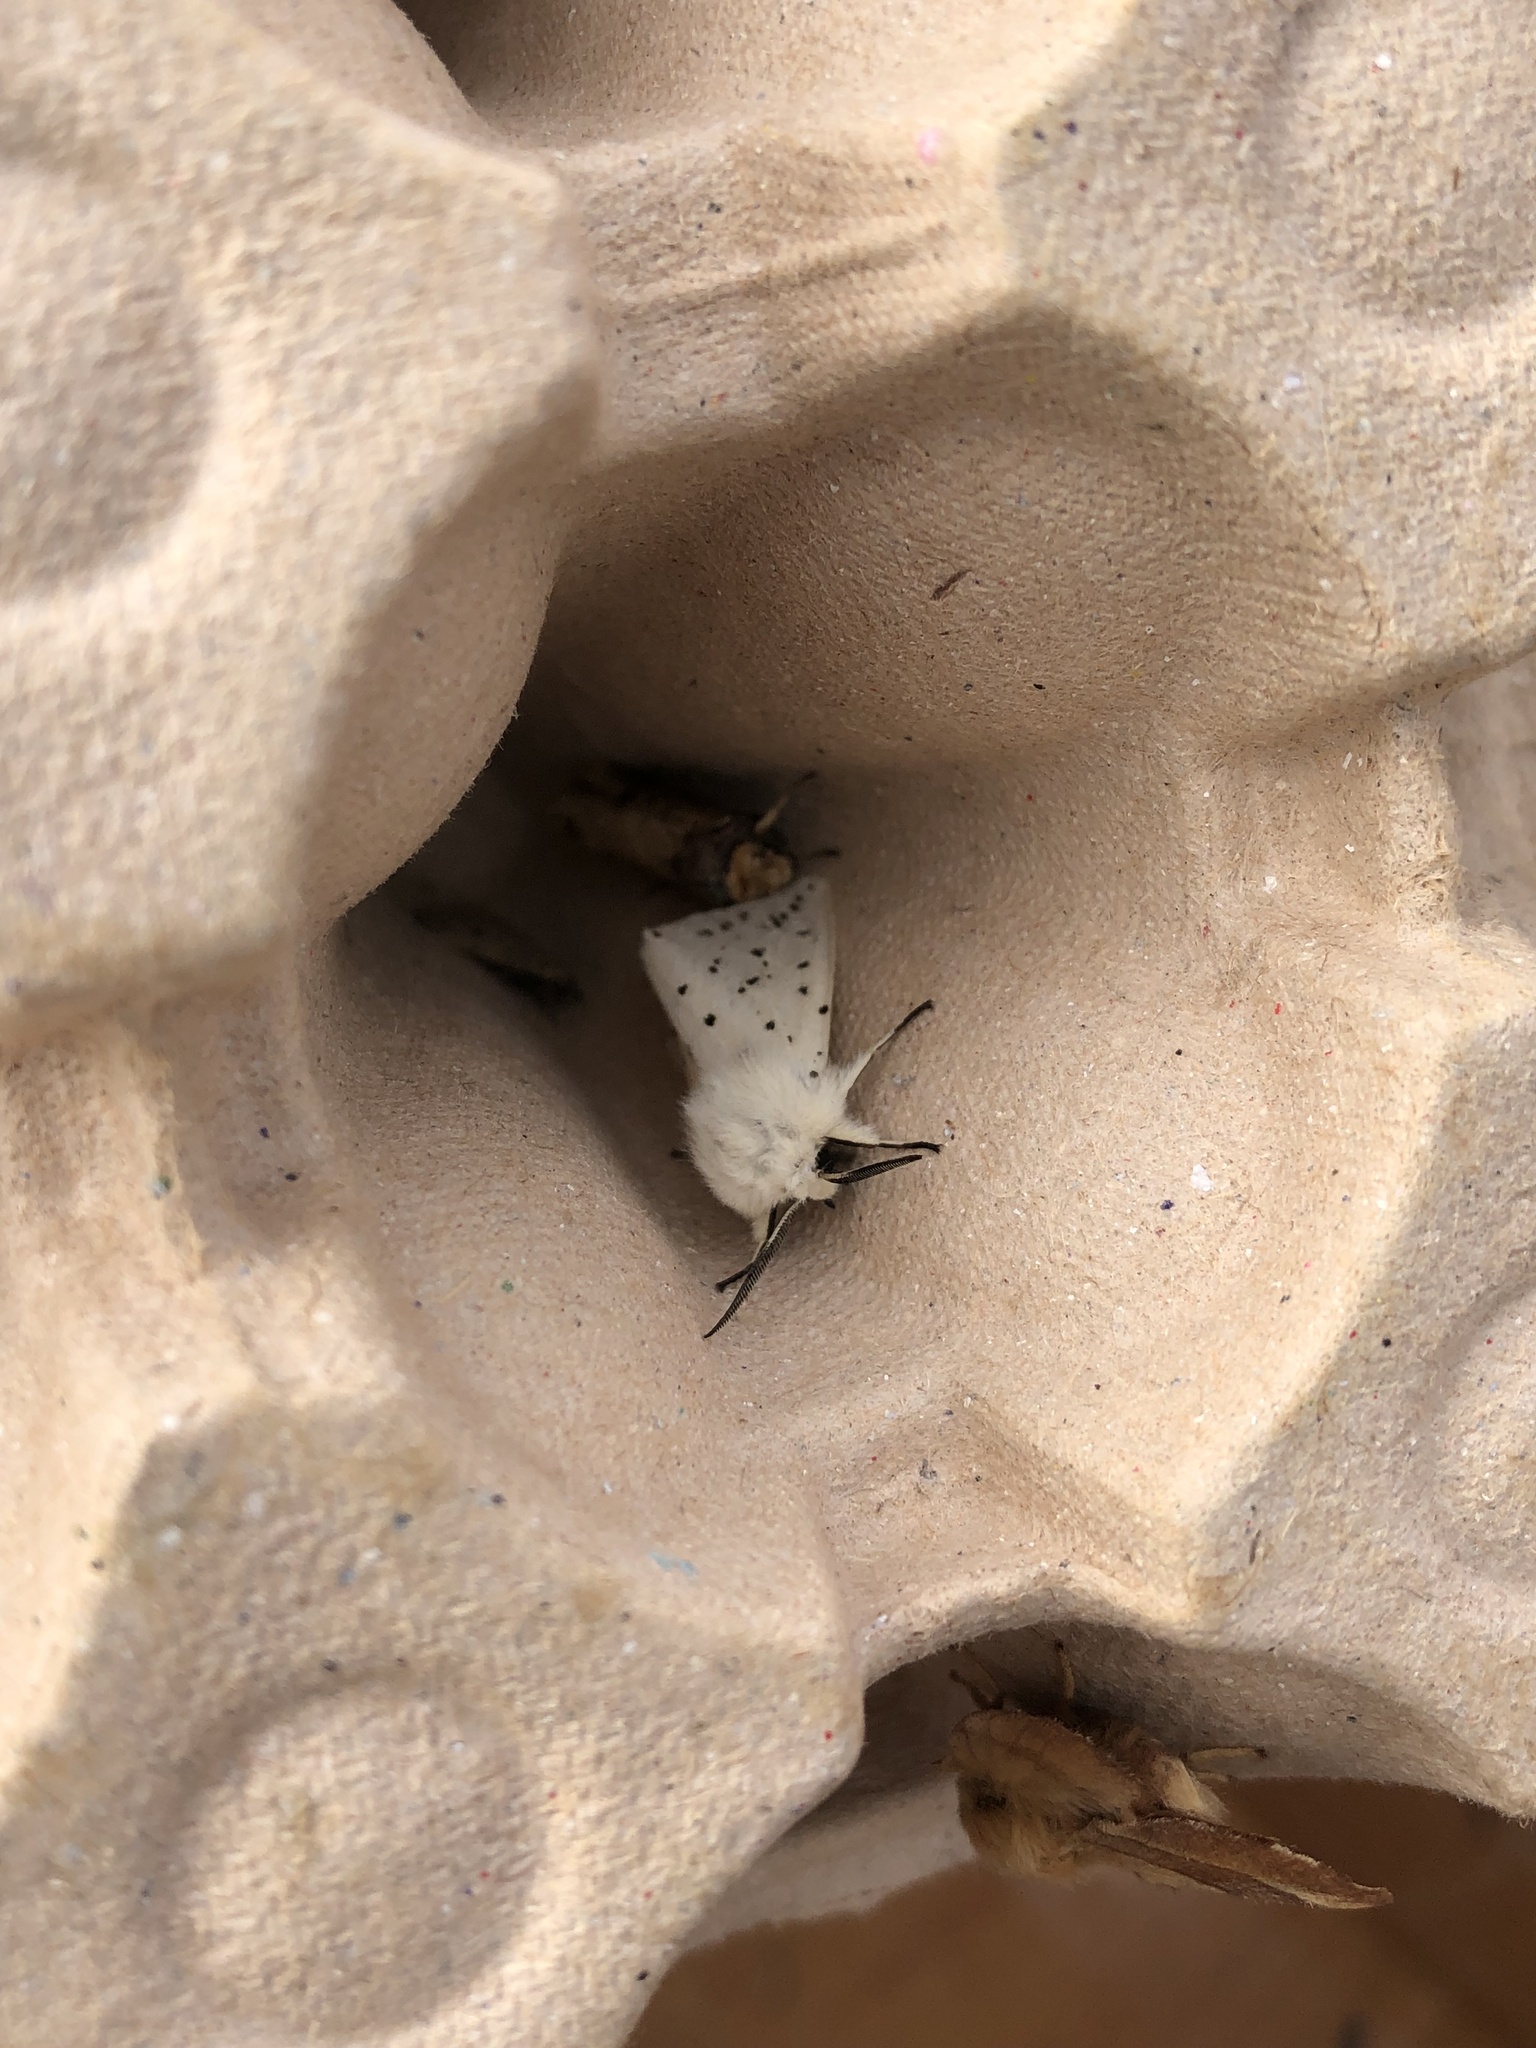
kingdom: Animalia
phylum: Arthropoda
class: Insecta
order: Lepidoptera
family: Erebidae
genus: Spilosoma
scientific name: Spilosoma lubricipeda
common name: White ermine
